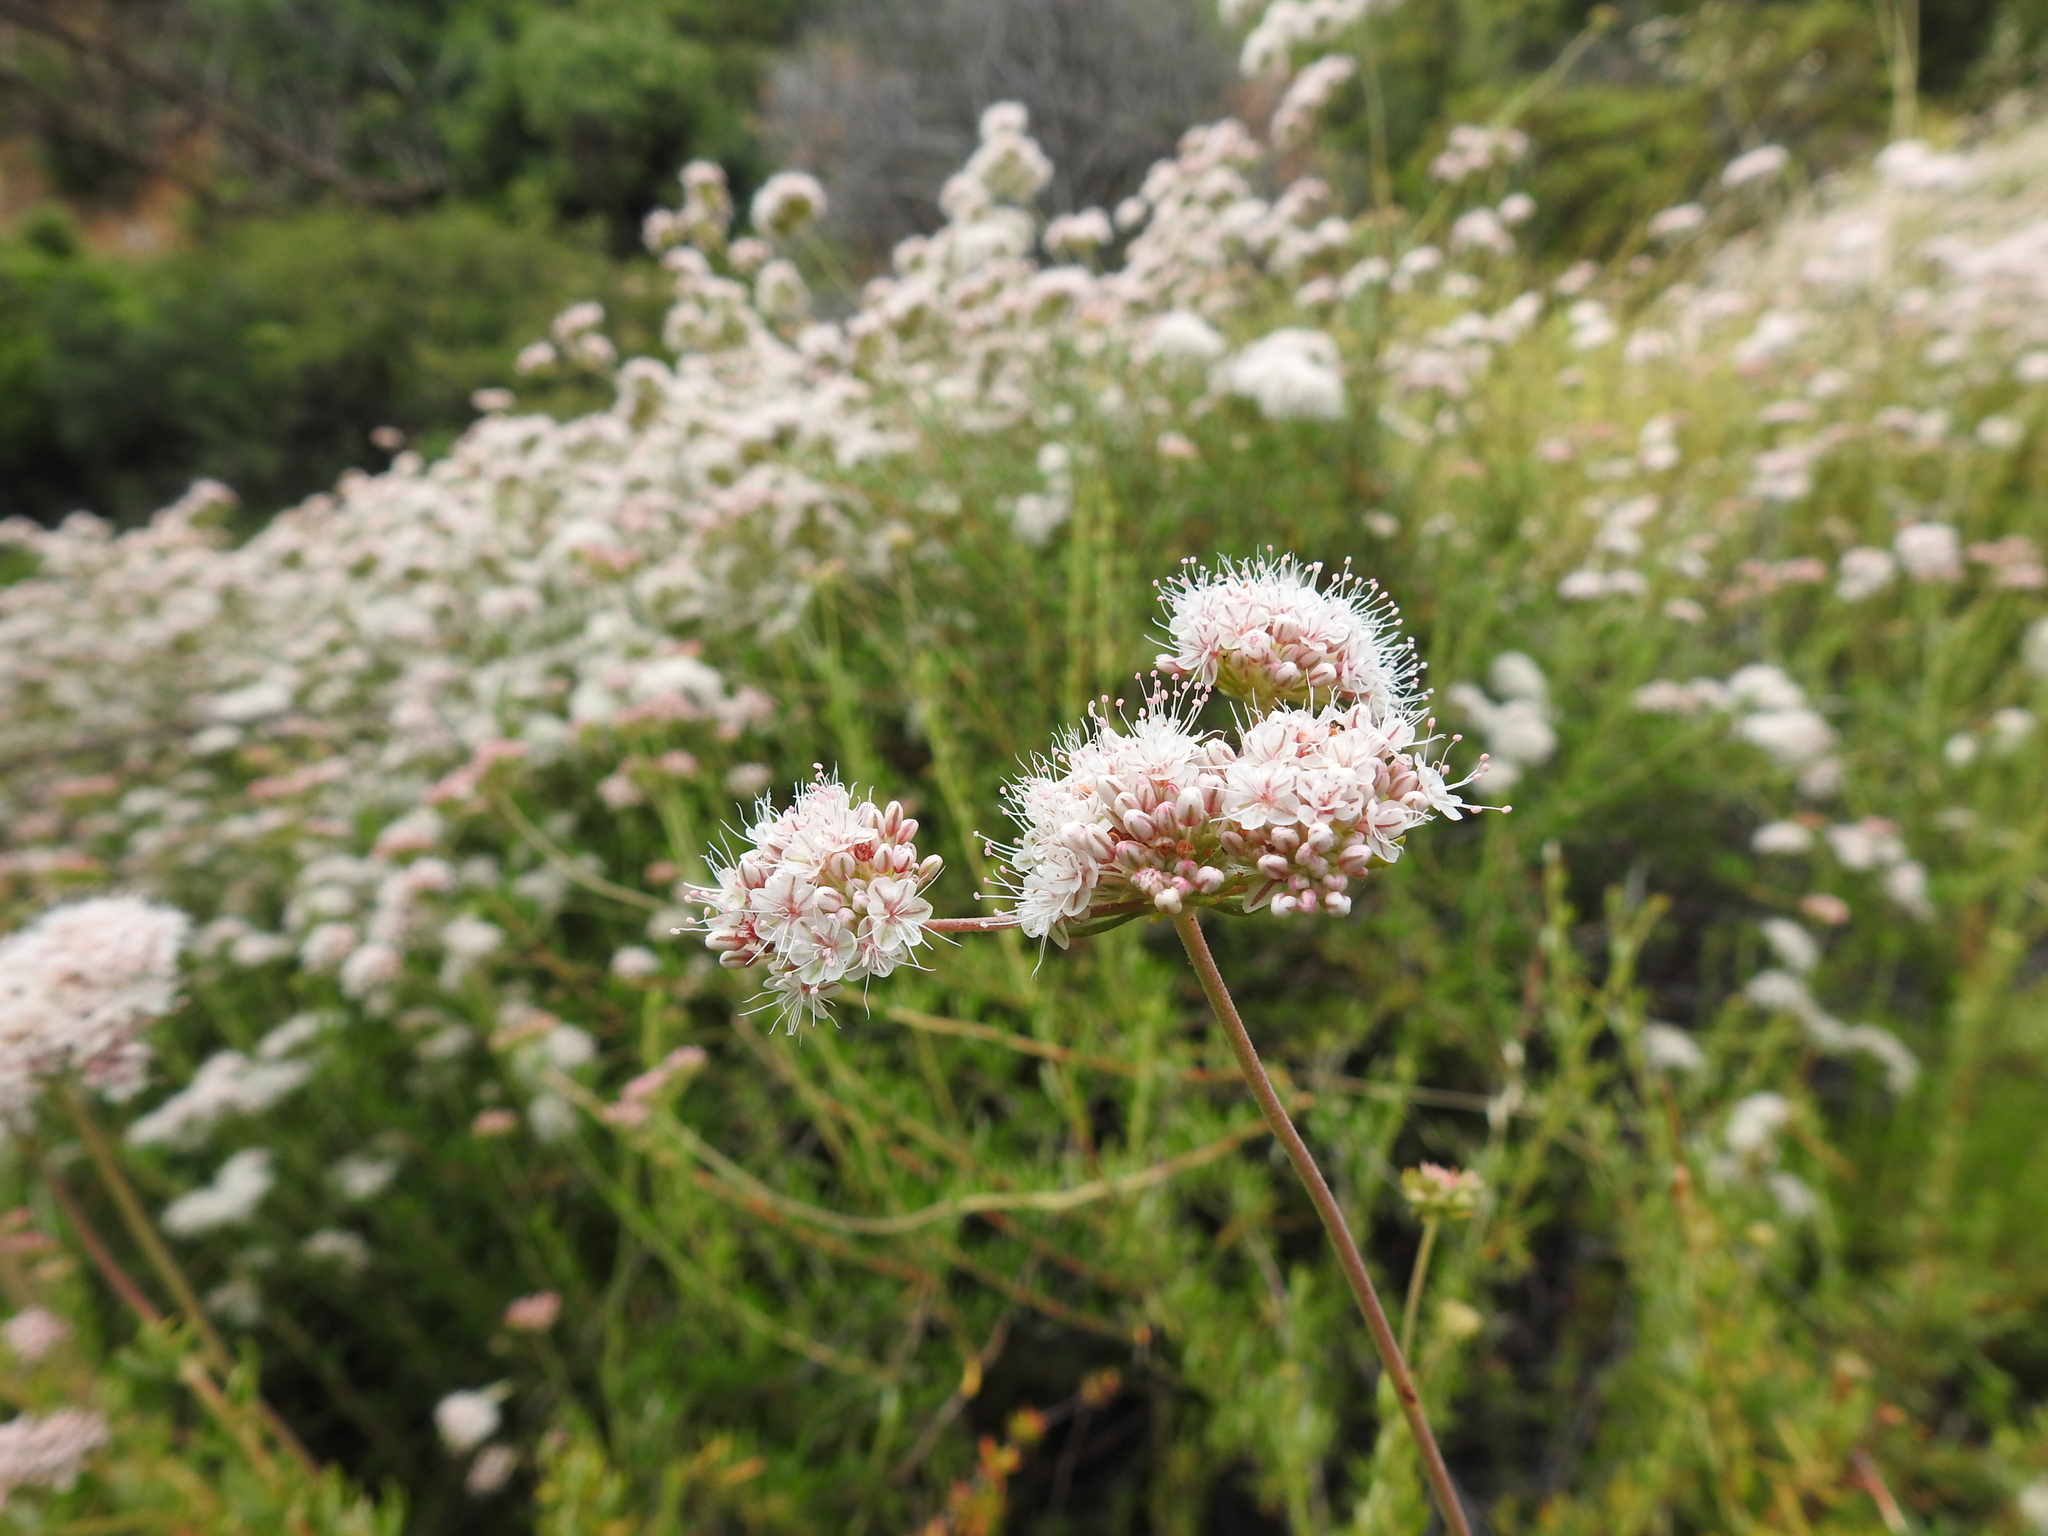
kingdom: Plantae
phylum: Tracheophyta
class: Magnoliopsida
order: Caryophyllales
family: Polygonaceae
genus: Eriogonum
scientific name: Eriogonum fasciculatum
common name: California wild buckwheat
